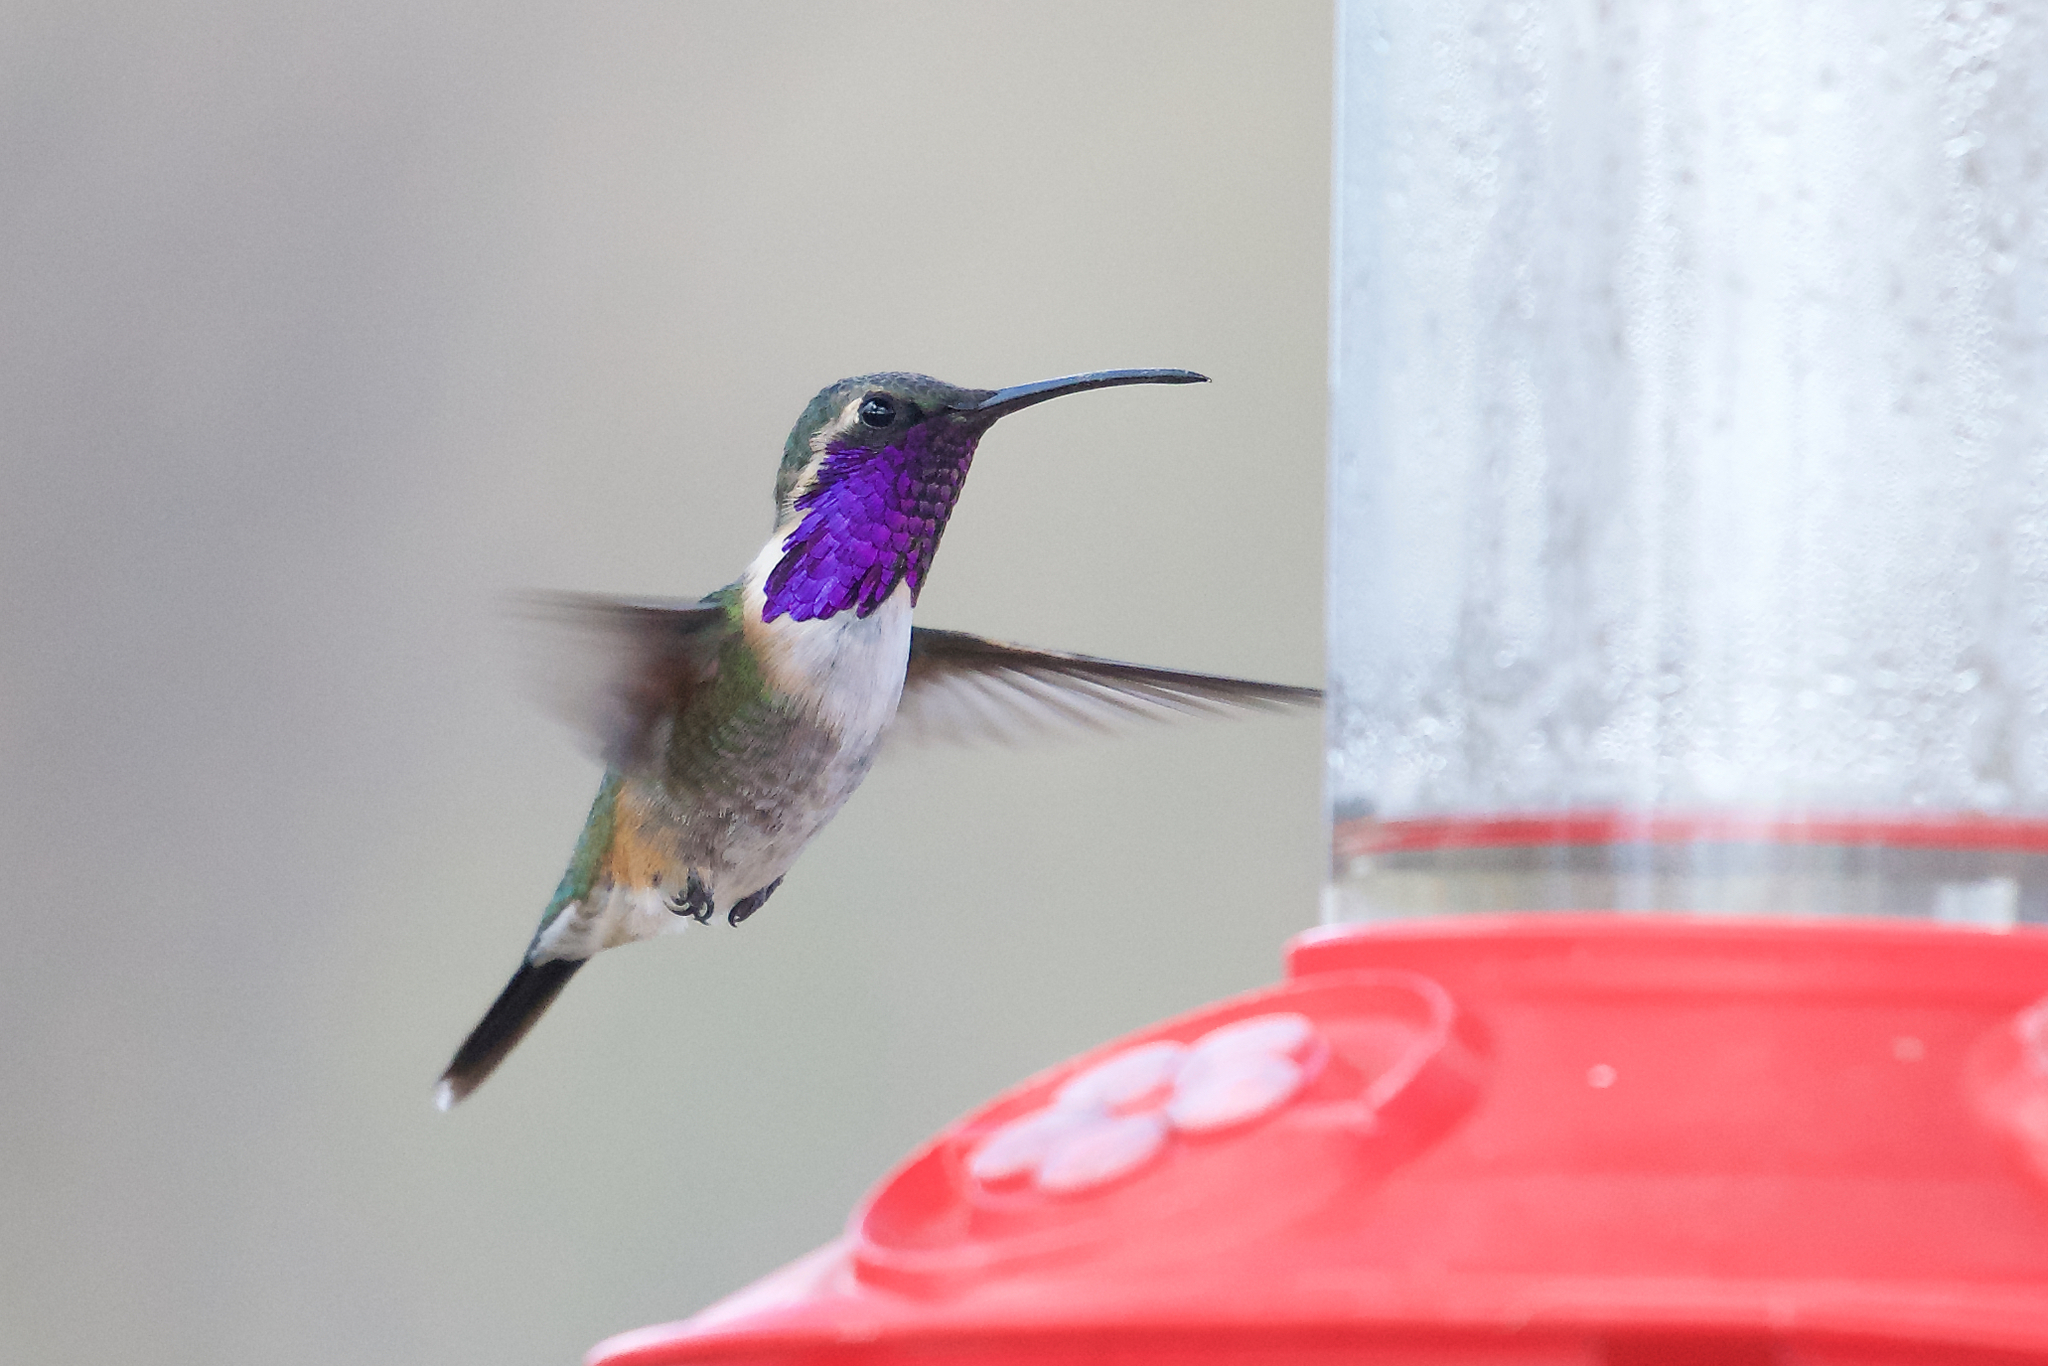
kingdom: Animalia
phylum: Chordata
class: Aves
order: Apodiformes
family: Trochilidae
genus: Calothorax
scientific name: Calothorax lucifer
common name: Lucifer sheartail
